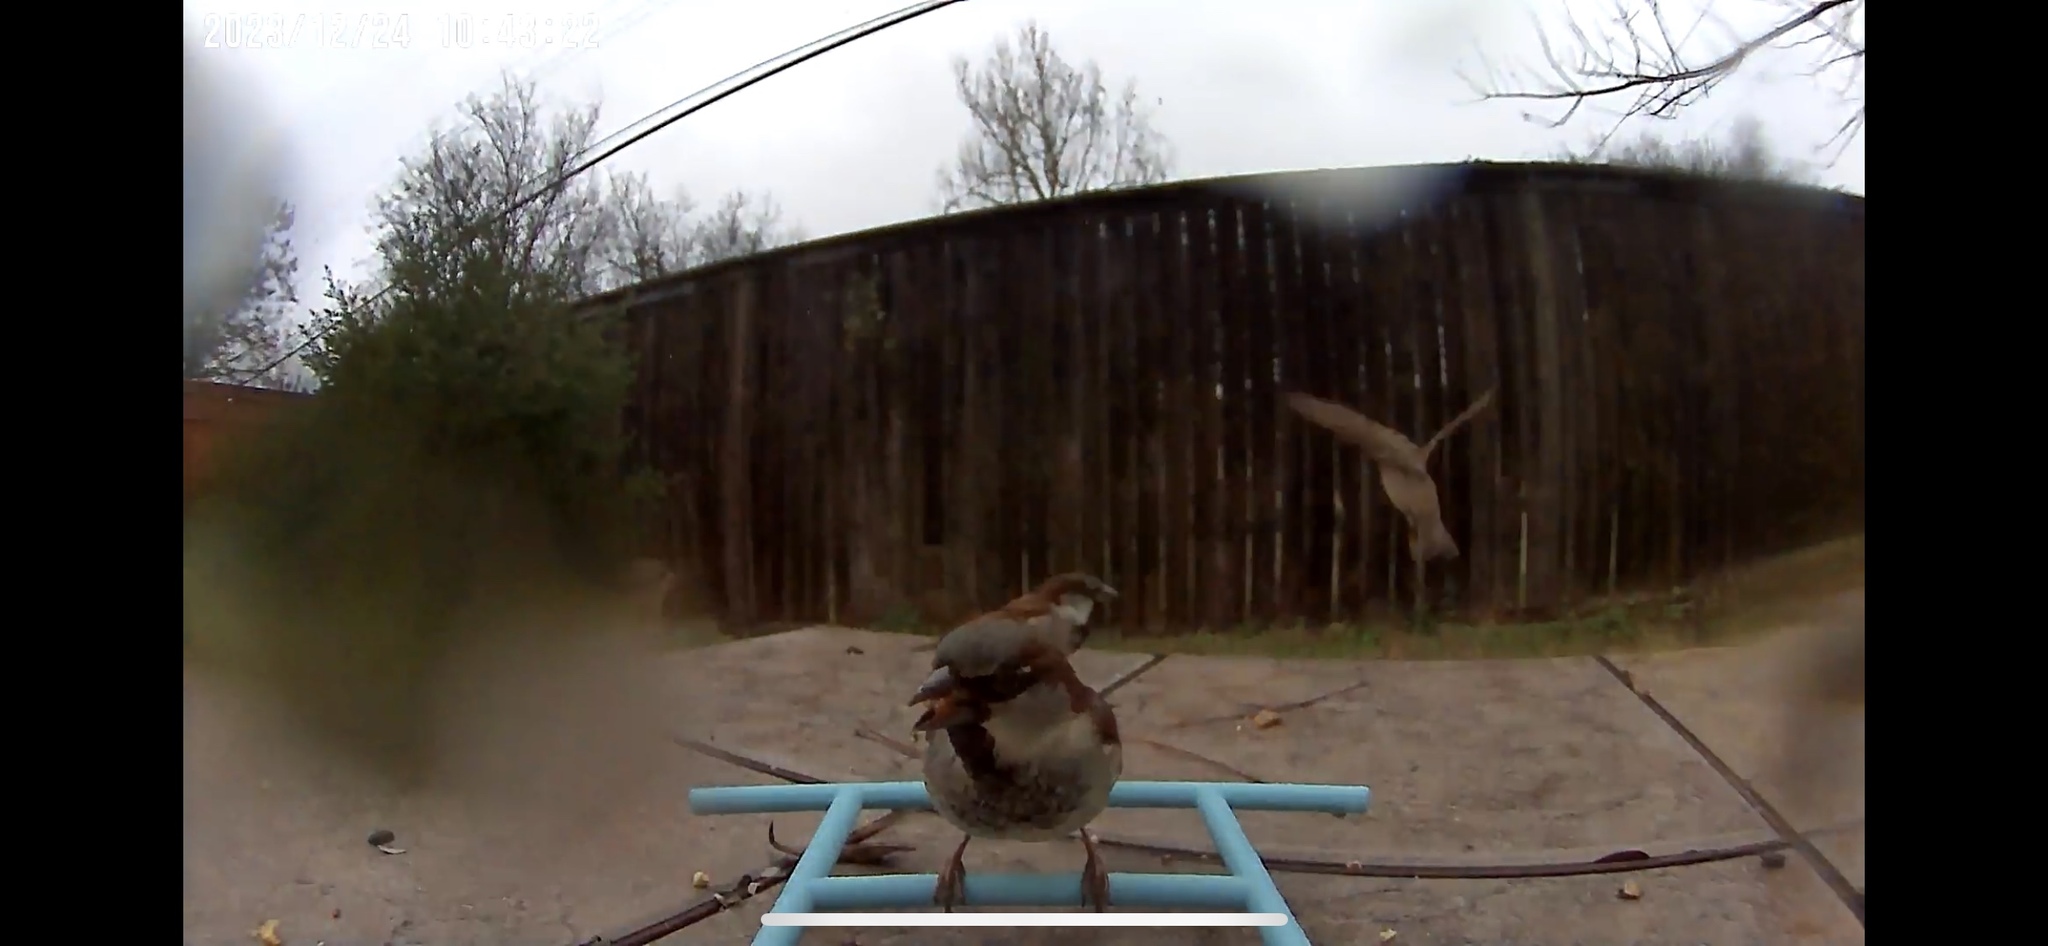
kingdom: Animalia
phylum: Chordata
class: Aves
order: Passeriformes
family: Passeridae
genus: Passer
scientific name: Passer domesticus
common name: House sparrow
